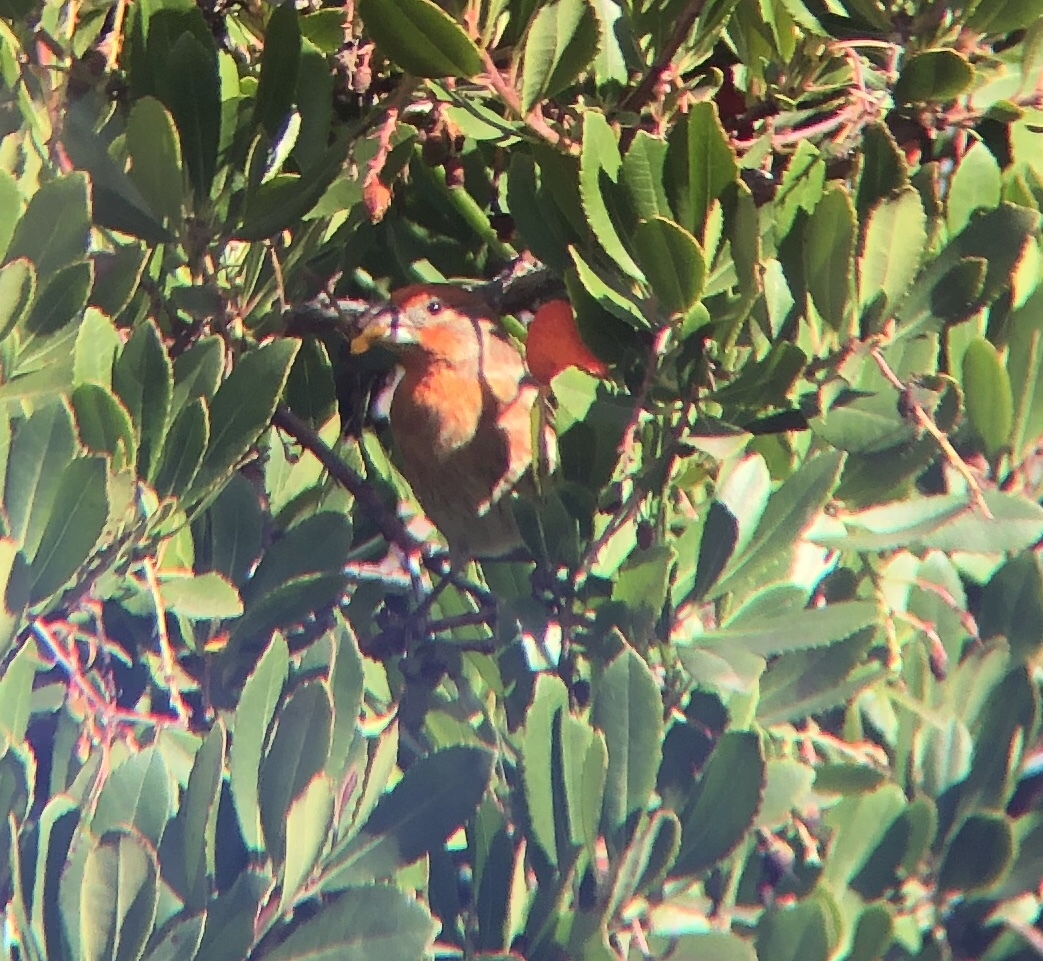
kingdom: Animalia
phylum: Chordata
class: Aves
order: Passeriformes
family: Fringillidae
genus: Haemorhous
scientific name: Haemorhous mexicanus
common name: House finch
